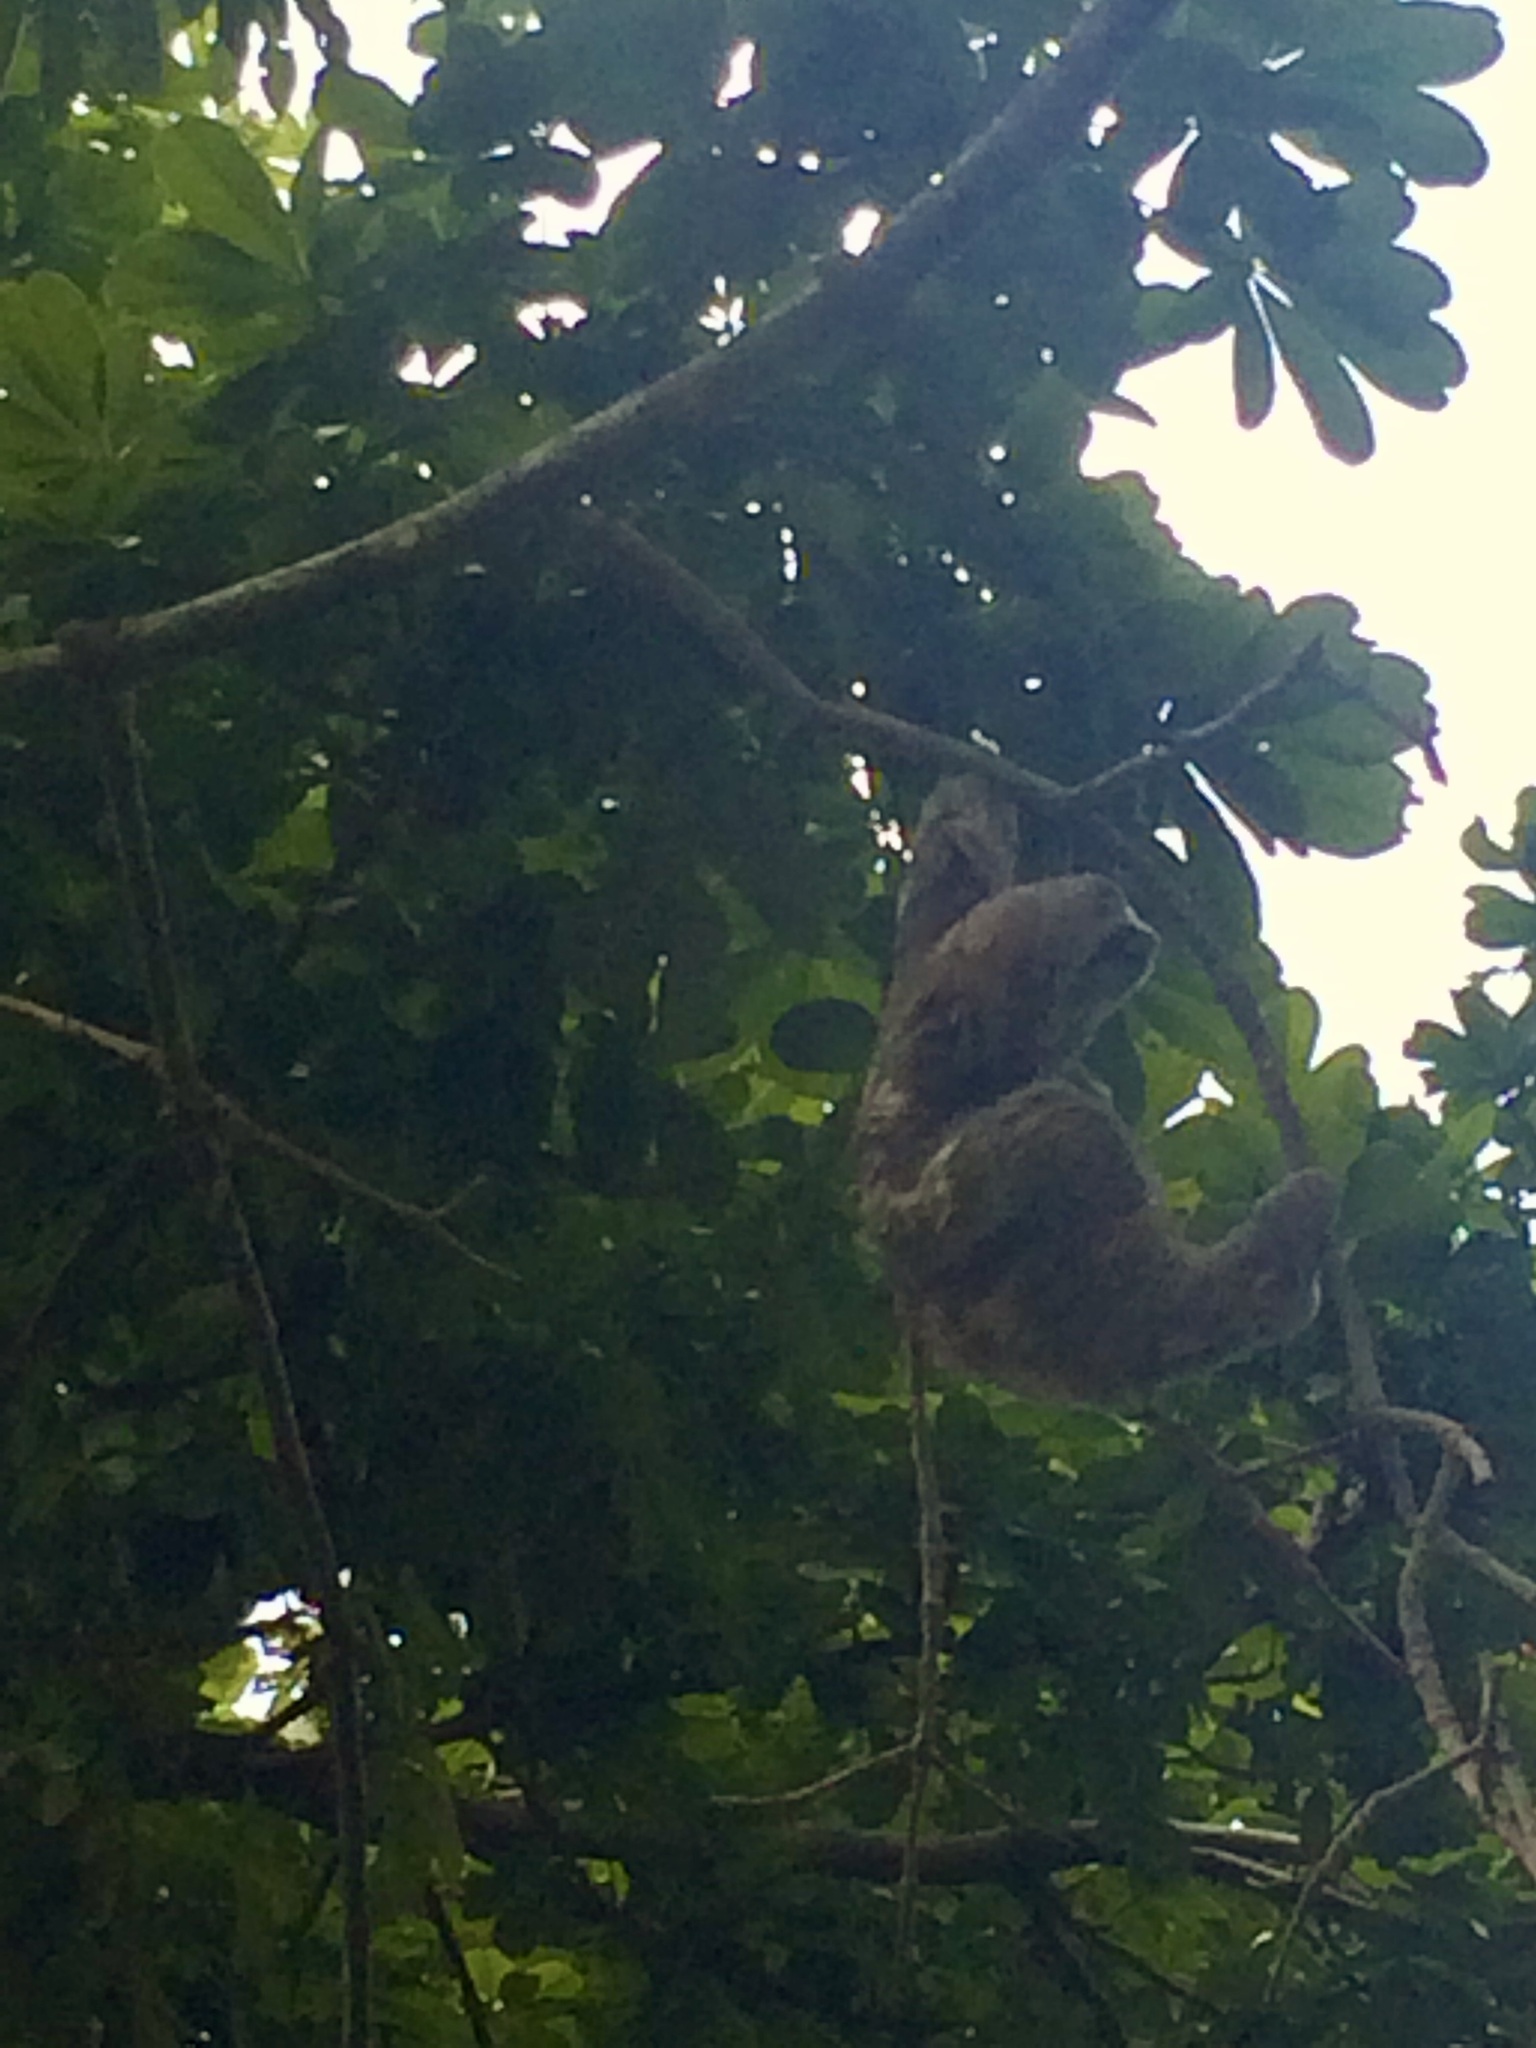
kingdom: Animalia
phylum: Chordata
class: Mammalia
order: Pilosa
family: Bradypodidae
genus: Bradypus
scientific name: Bradypus variegatus
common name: Brown-throated three-toed sloth
